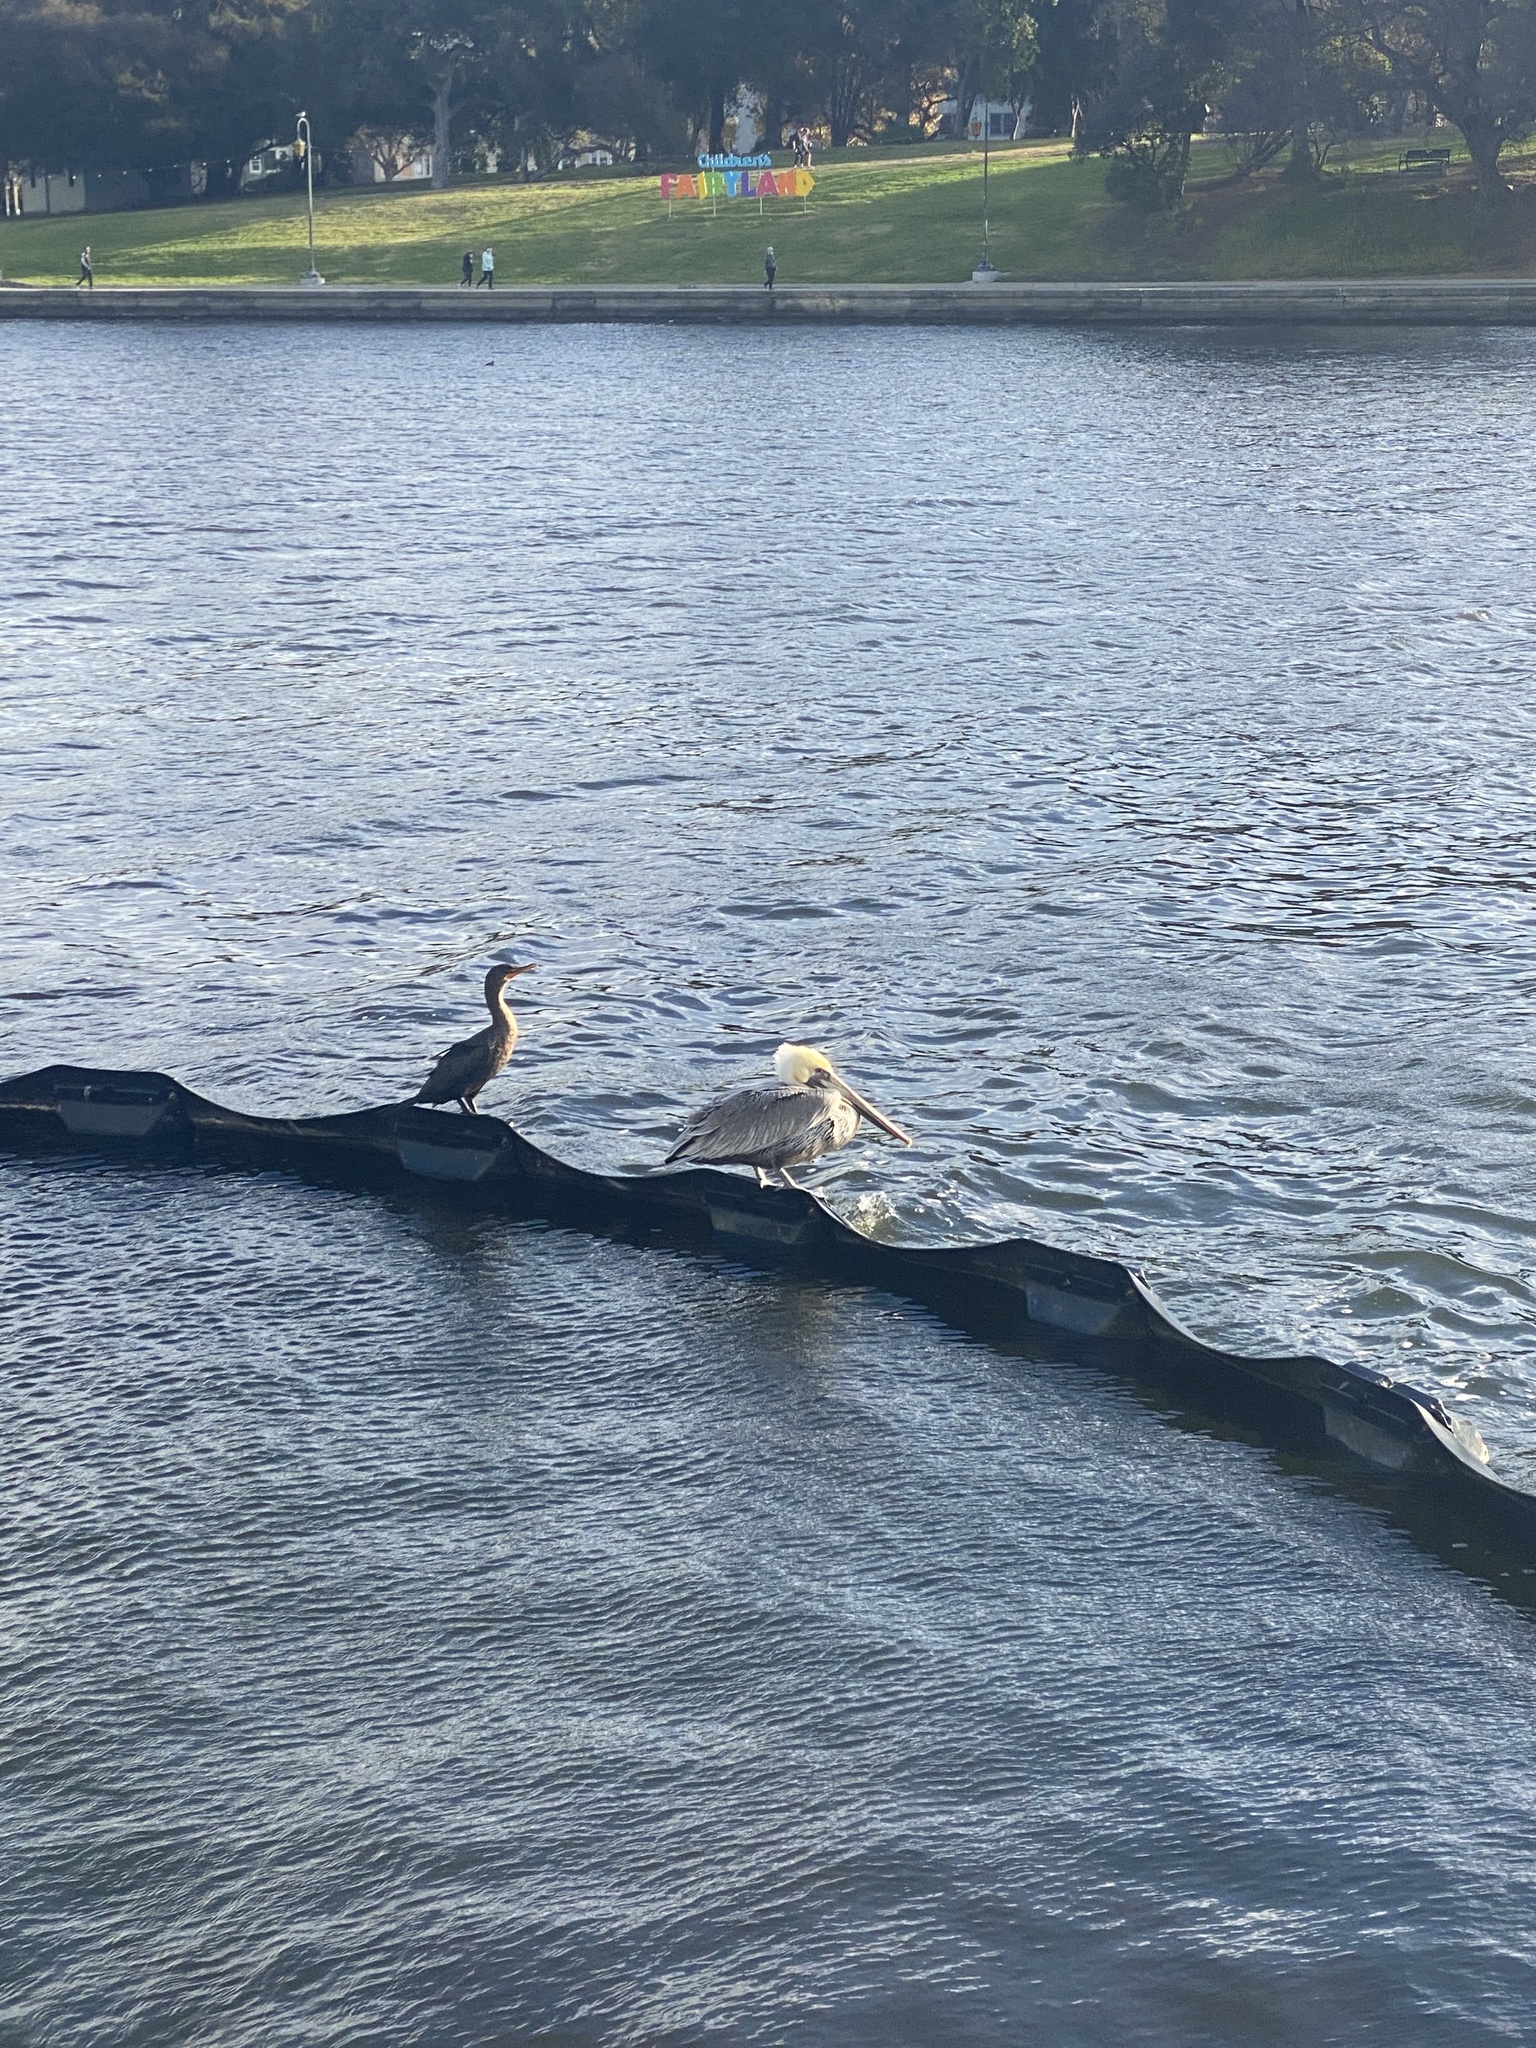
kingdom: Animalia
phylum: Chordata
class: Aves
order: Pelecaniformes
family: Pelecanidae
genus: Pelecanus
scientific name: Pelecanus occidentalis
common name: Brown pelican
